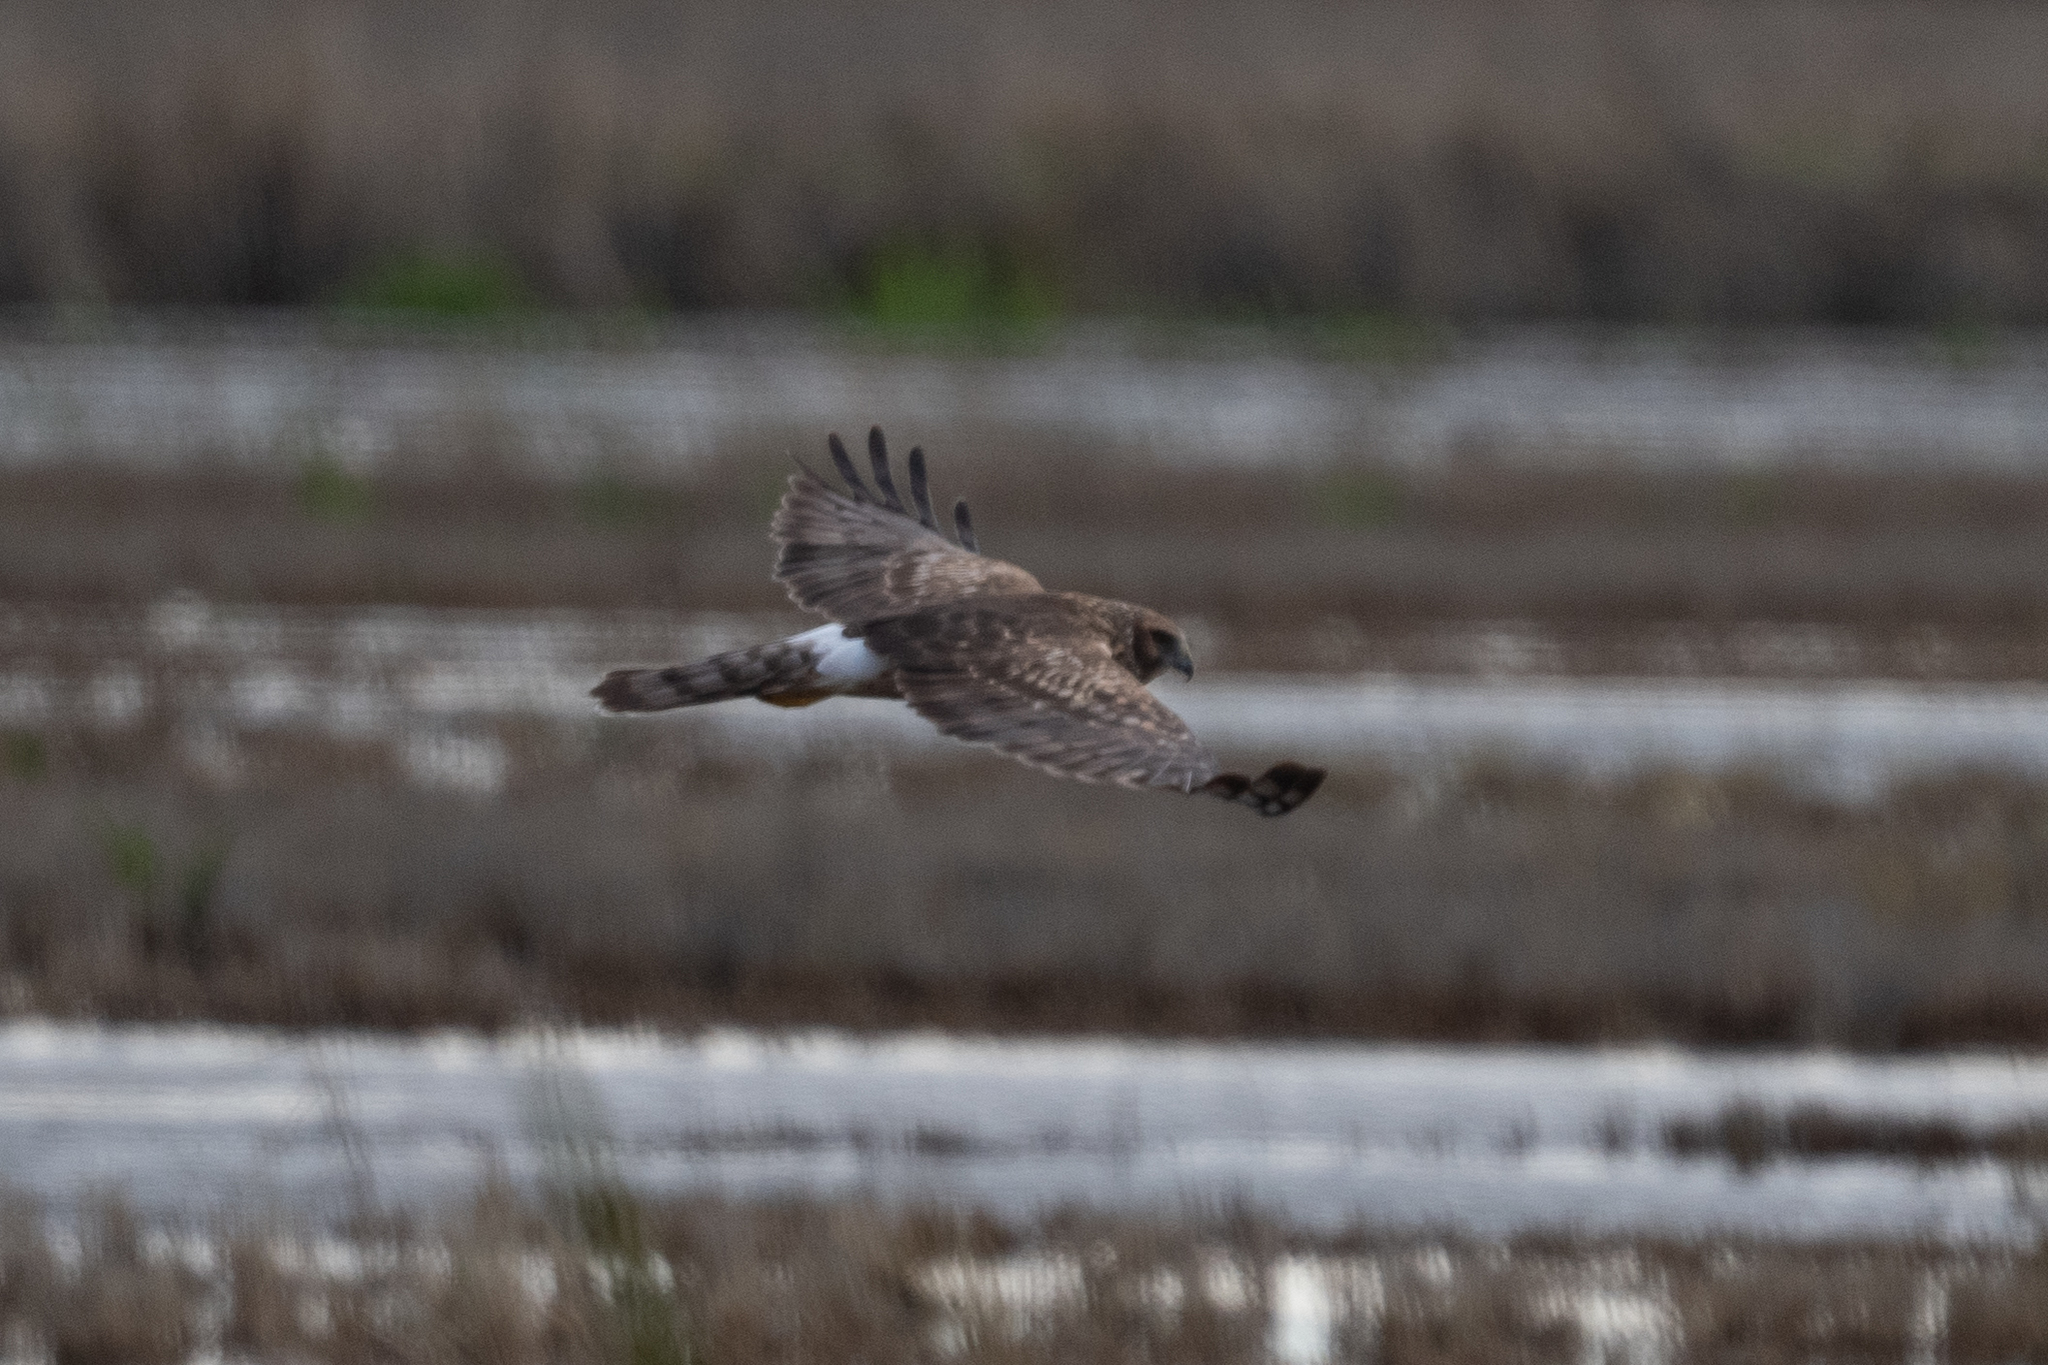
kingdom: Animalia
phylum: Chordata
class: Aves
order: Accipitriformes
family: Accipitridae
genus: Circus
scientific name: Circus cyaneus
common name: Hen harrier
